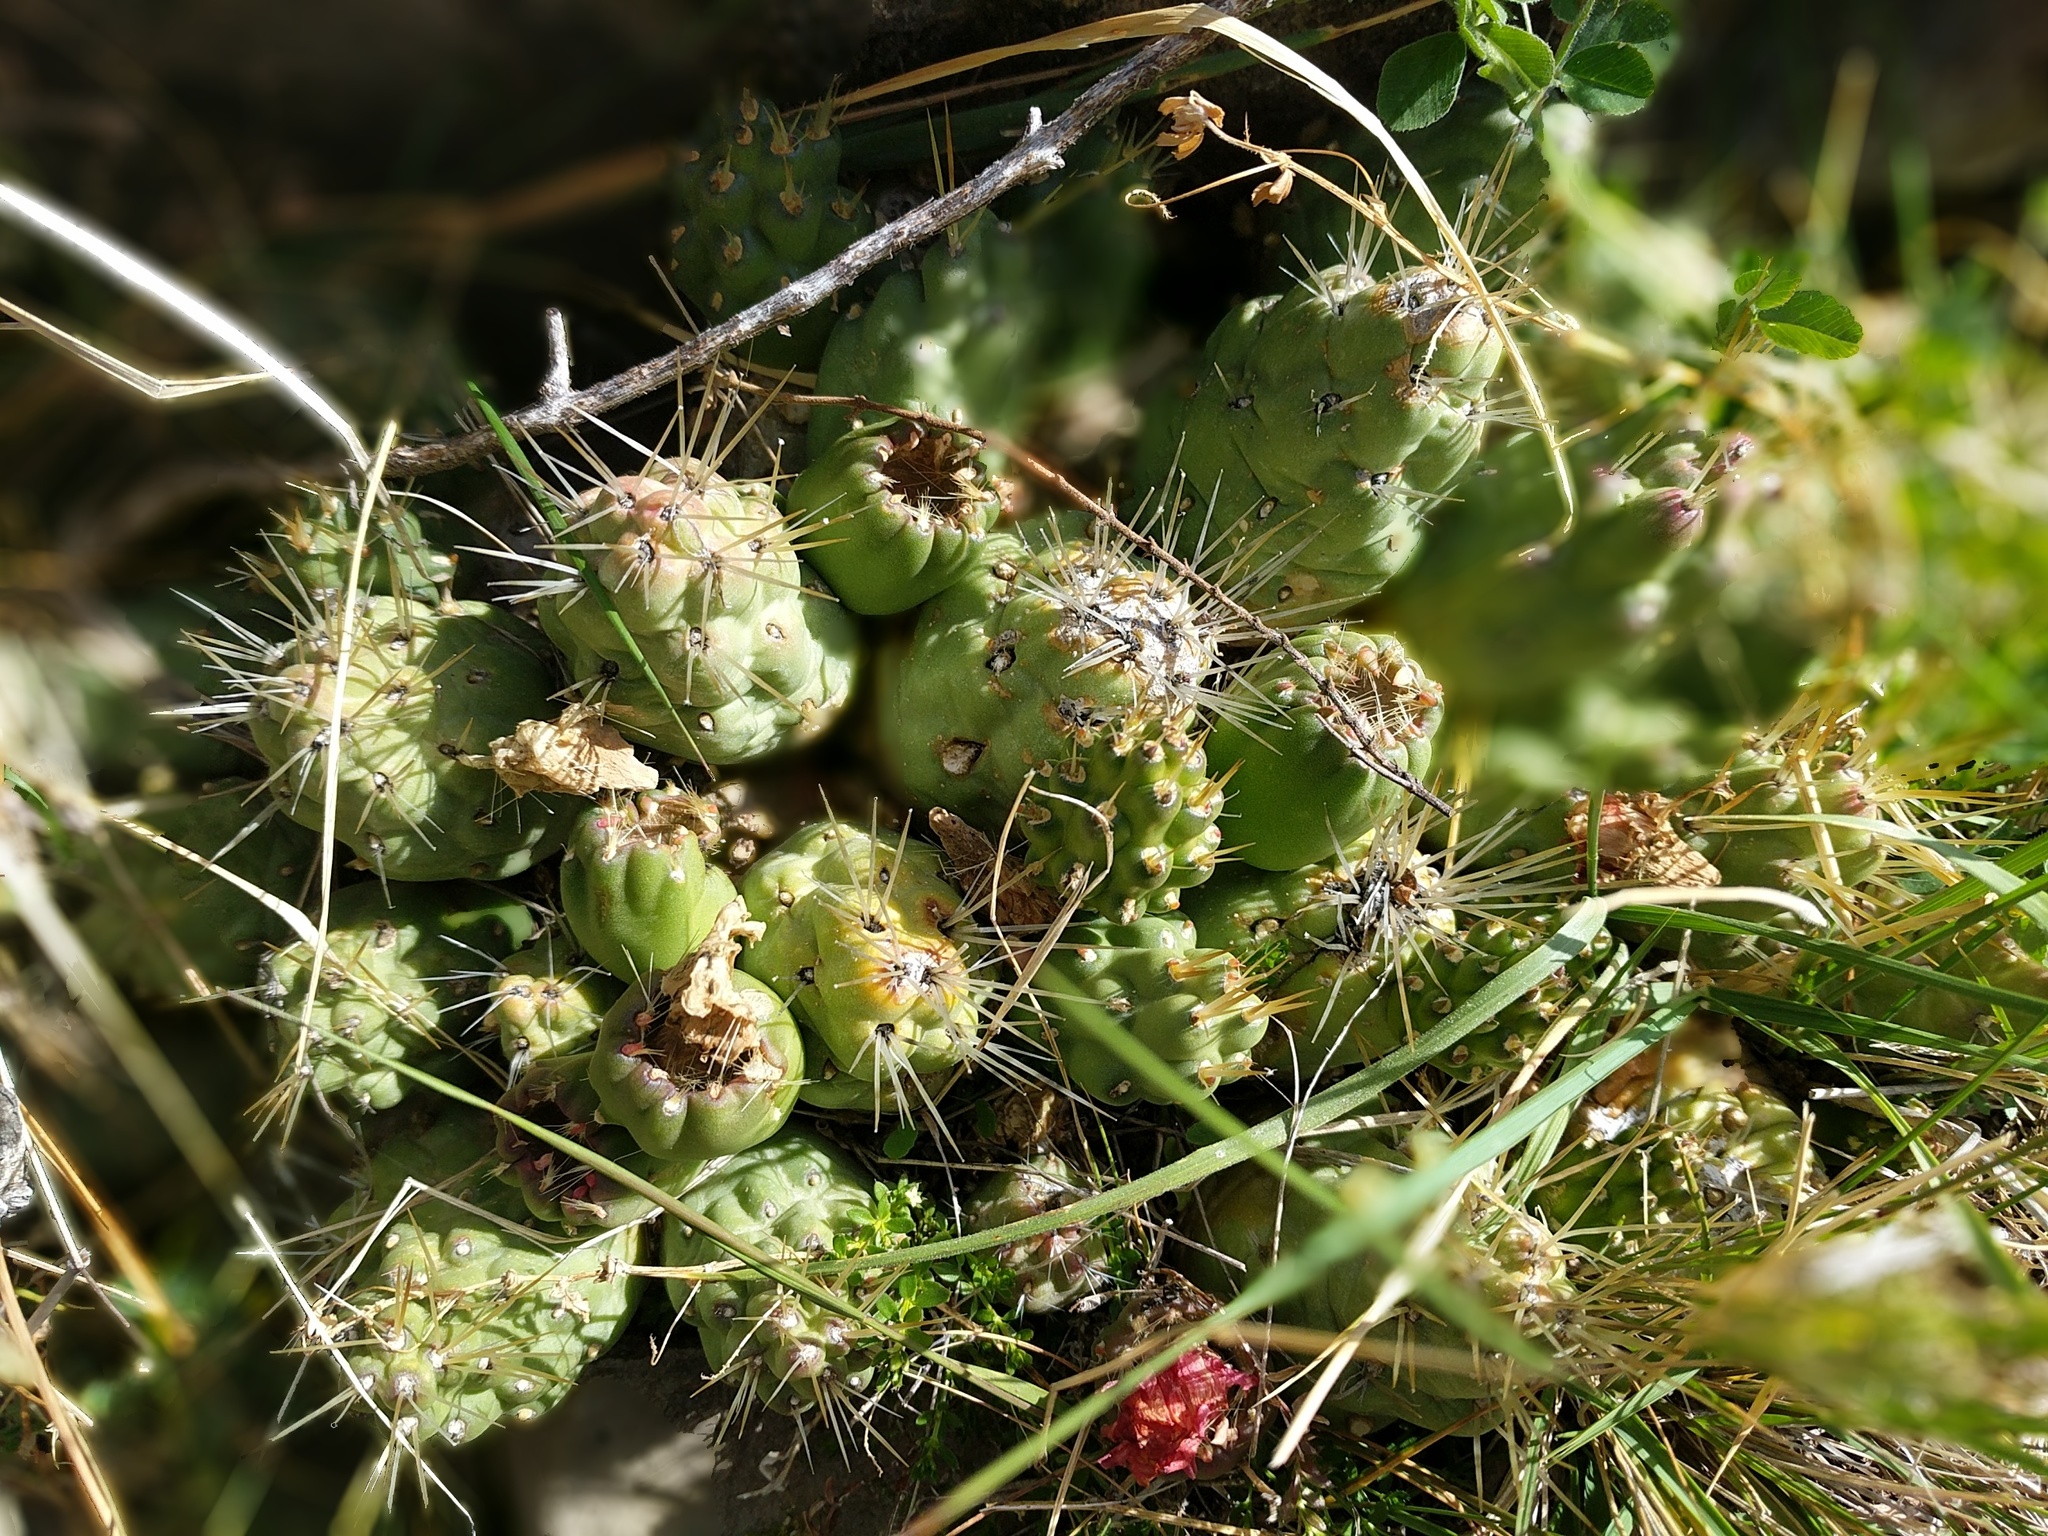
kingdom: Plantae
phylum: Tracheophyta
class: Magnoliopsida
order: Caryophyllales
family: Cactaceae
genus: Cumulopuntia
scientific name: Cumulopuntia boliviana
